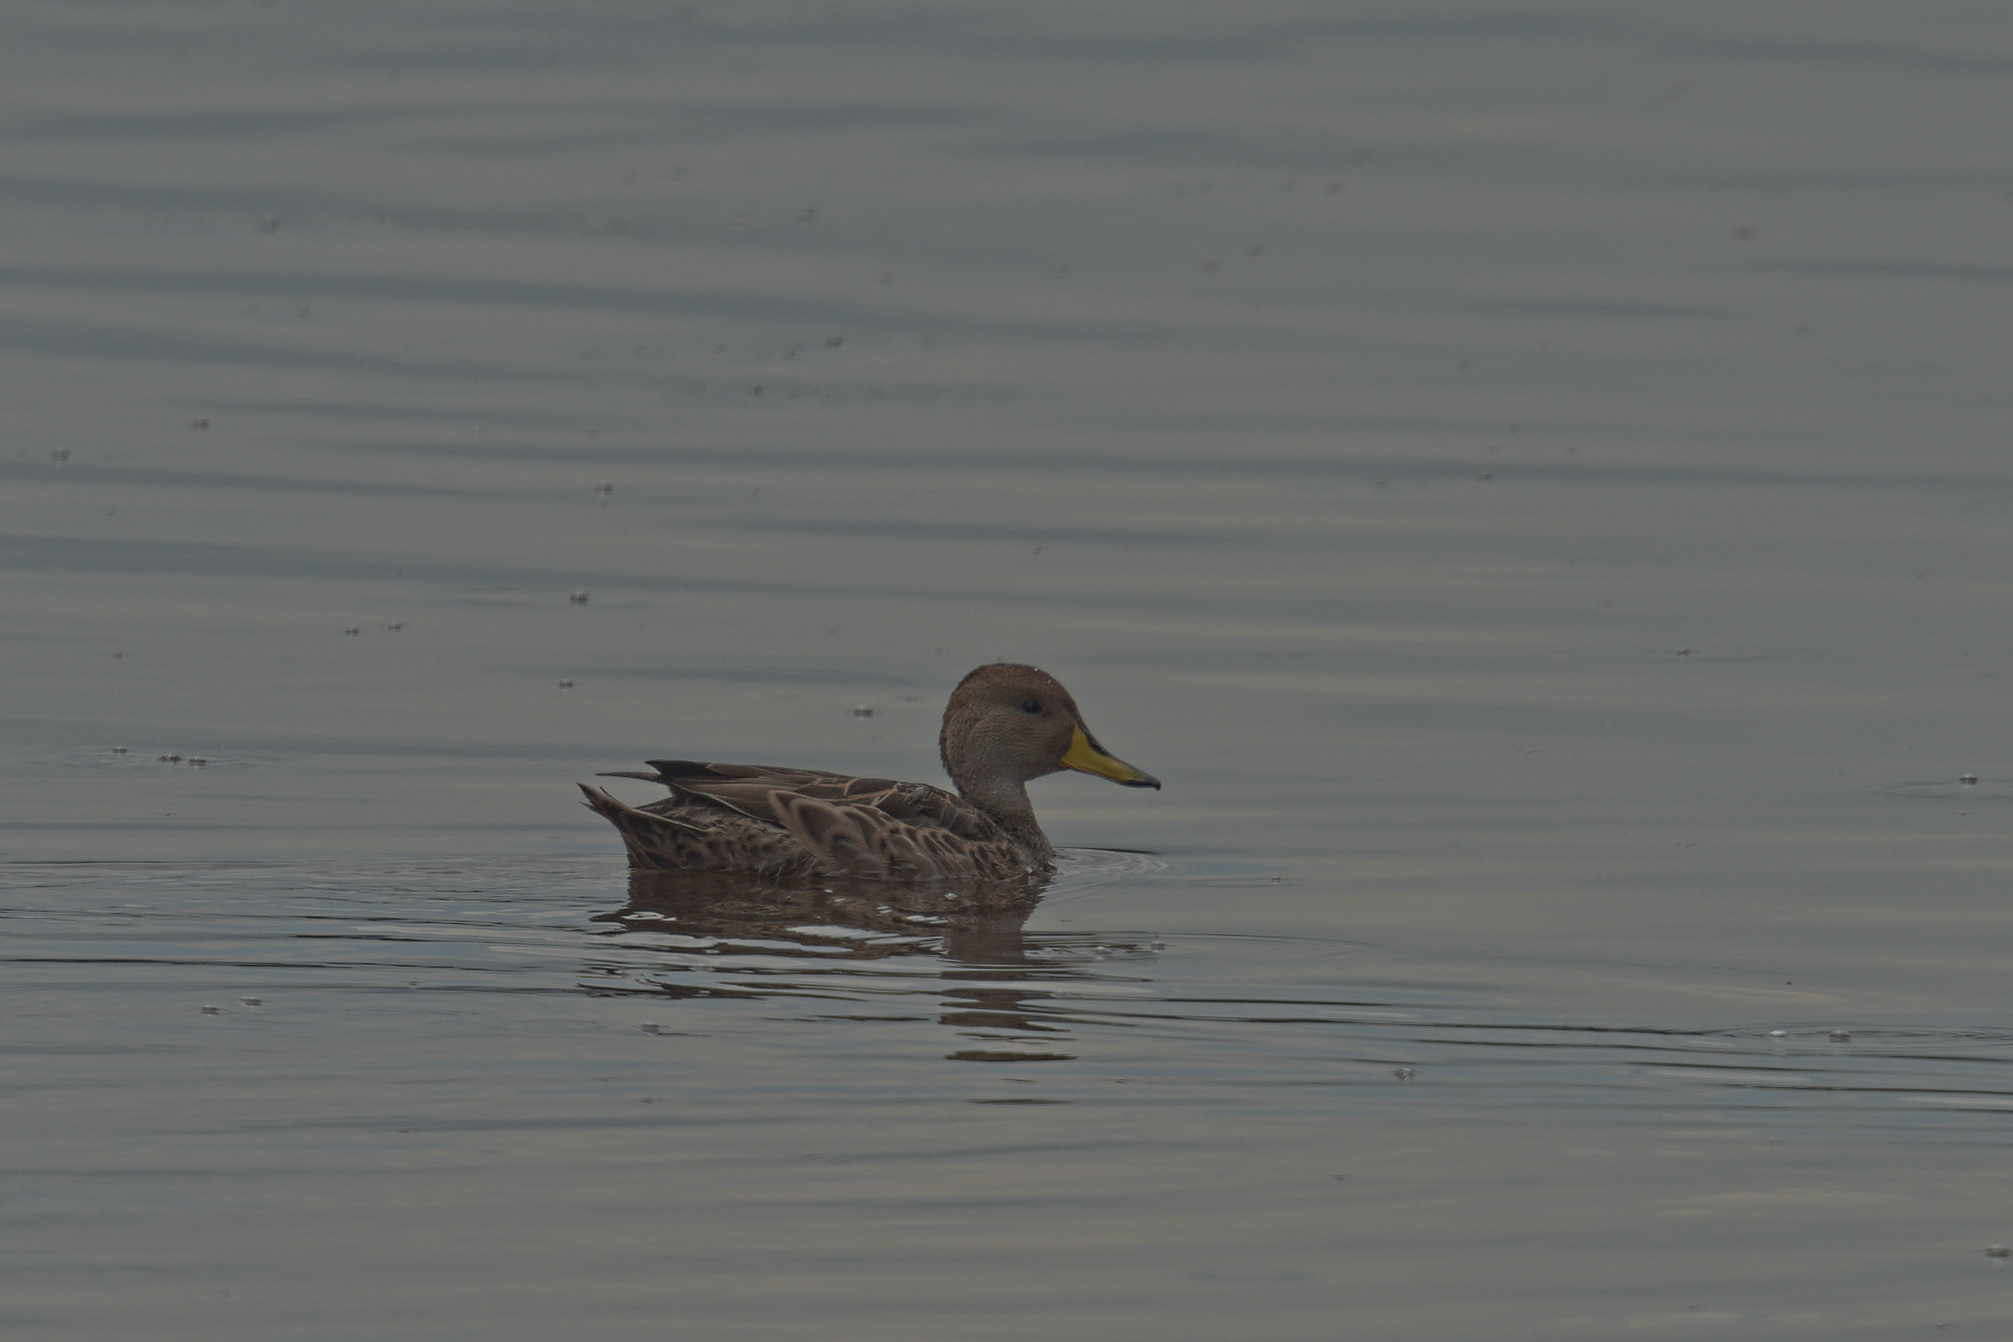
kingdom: Animalia
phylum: Chordata
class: Aves
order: Anseriformes
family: Anatidae
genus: Anas
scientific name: Anas georgica
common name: Yellow-billed pintail
